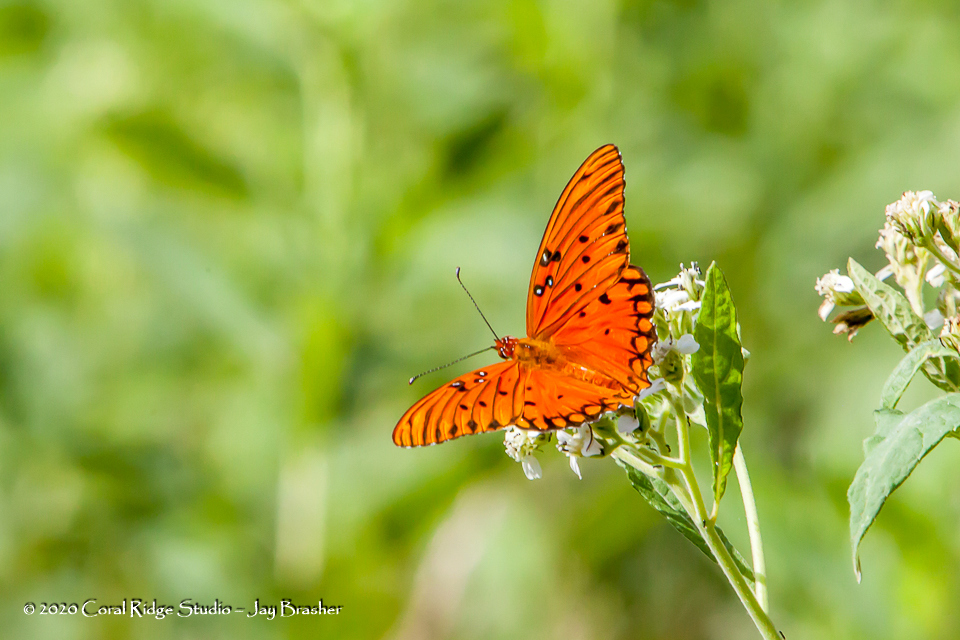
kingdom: Animalia
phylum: Arthropoda
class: Insecta
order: Lepidoptera
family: Nymphalidae
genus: Dione
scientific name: Dione vanillae
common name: Gulf fritillary
